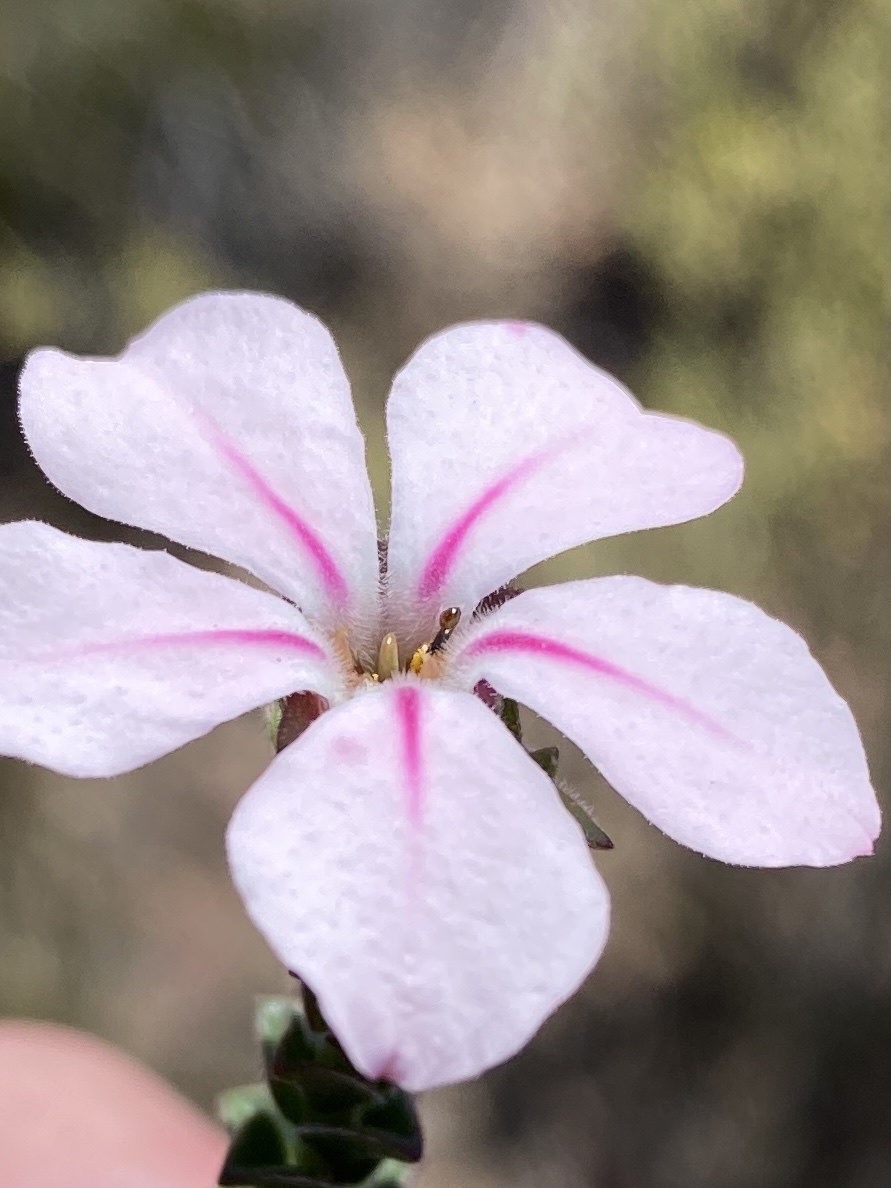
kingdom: Plantae
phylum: Tracheophyta
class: Magnoliopsida
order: Sapindales
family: Rutaceae
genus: Acmadenia
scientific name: Acmadenia tetragona
